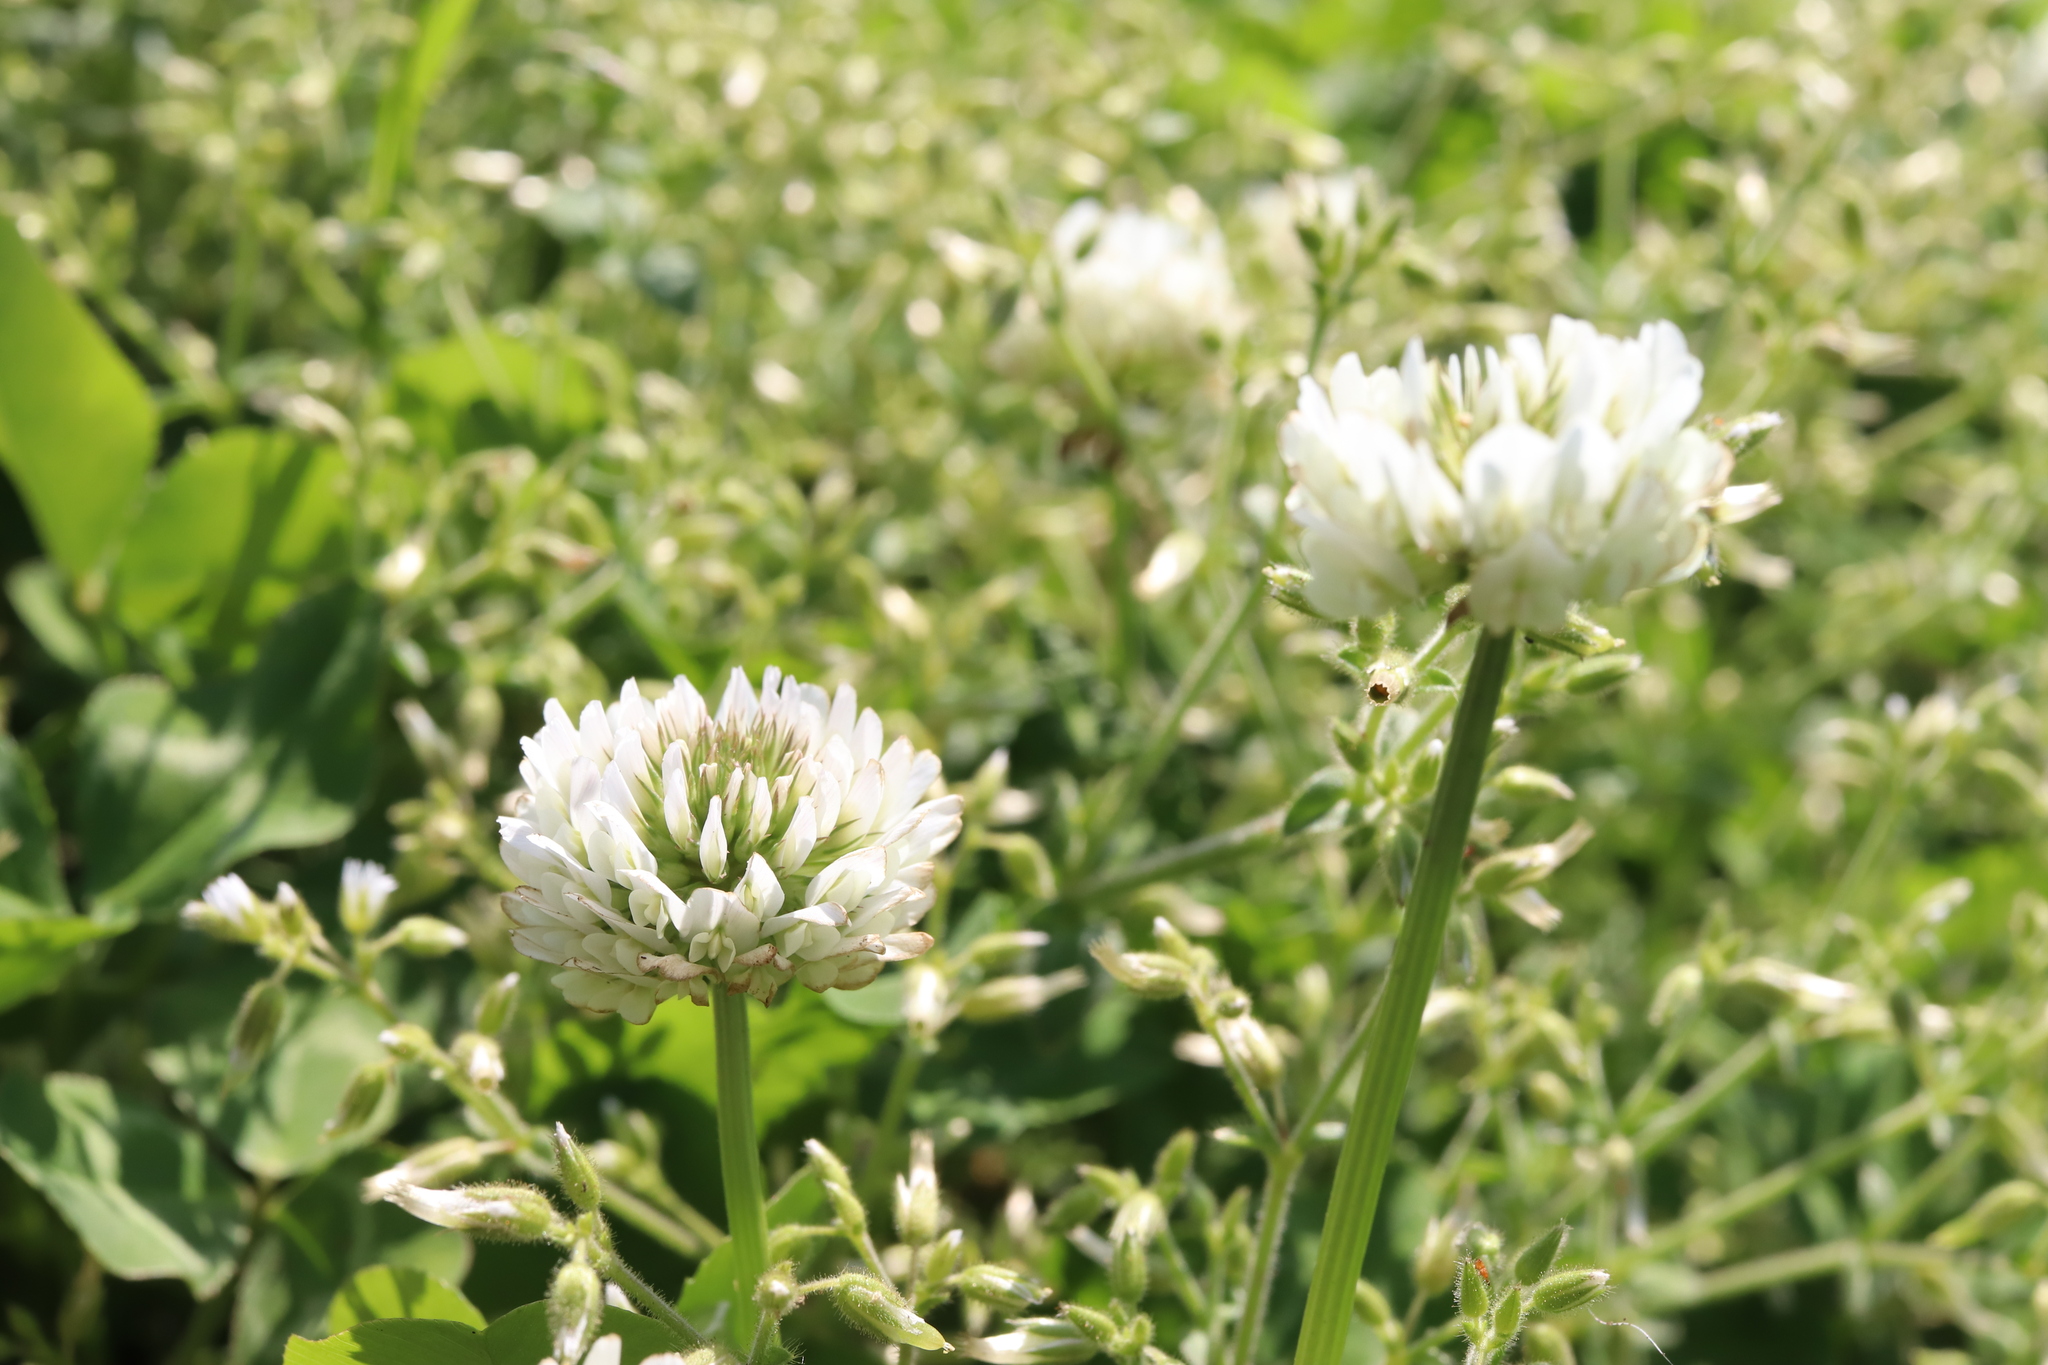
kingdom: Plantae
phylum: Tracheophyta
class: Magnoliopsida
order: Fabales
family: Fabaceae
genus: Trifolium
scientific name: Trifolium repens
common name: White clover
